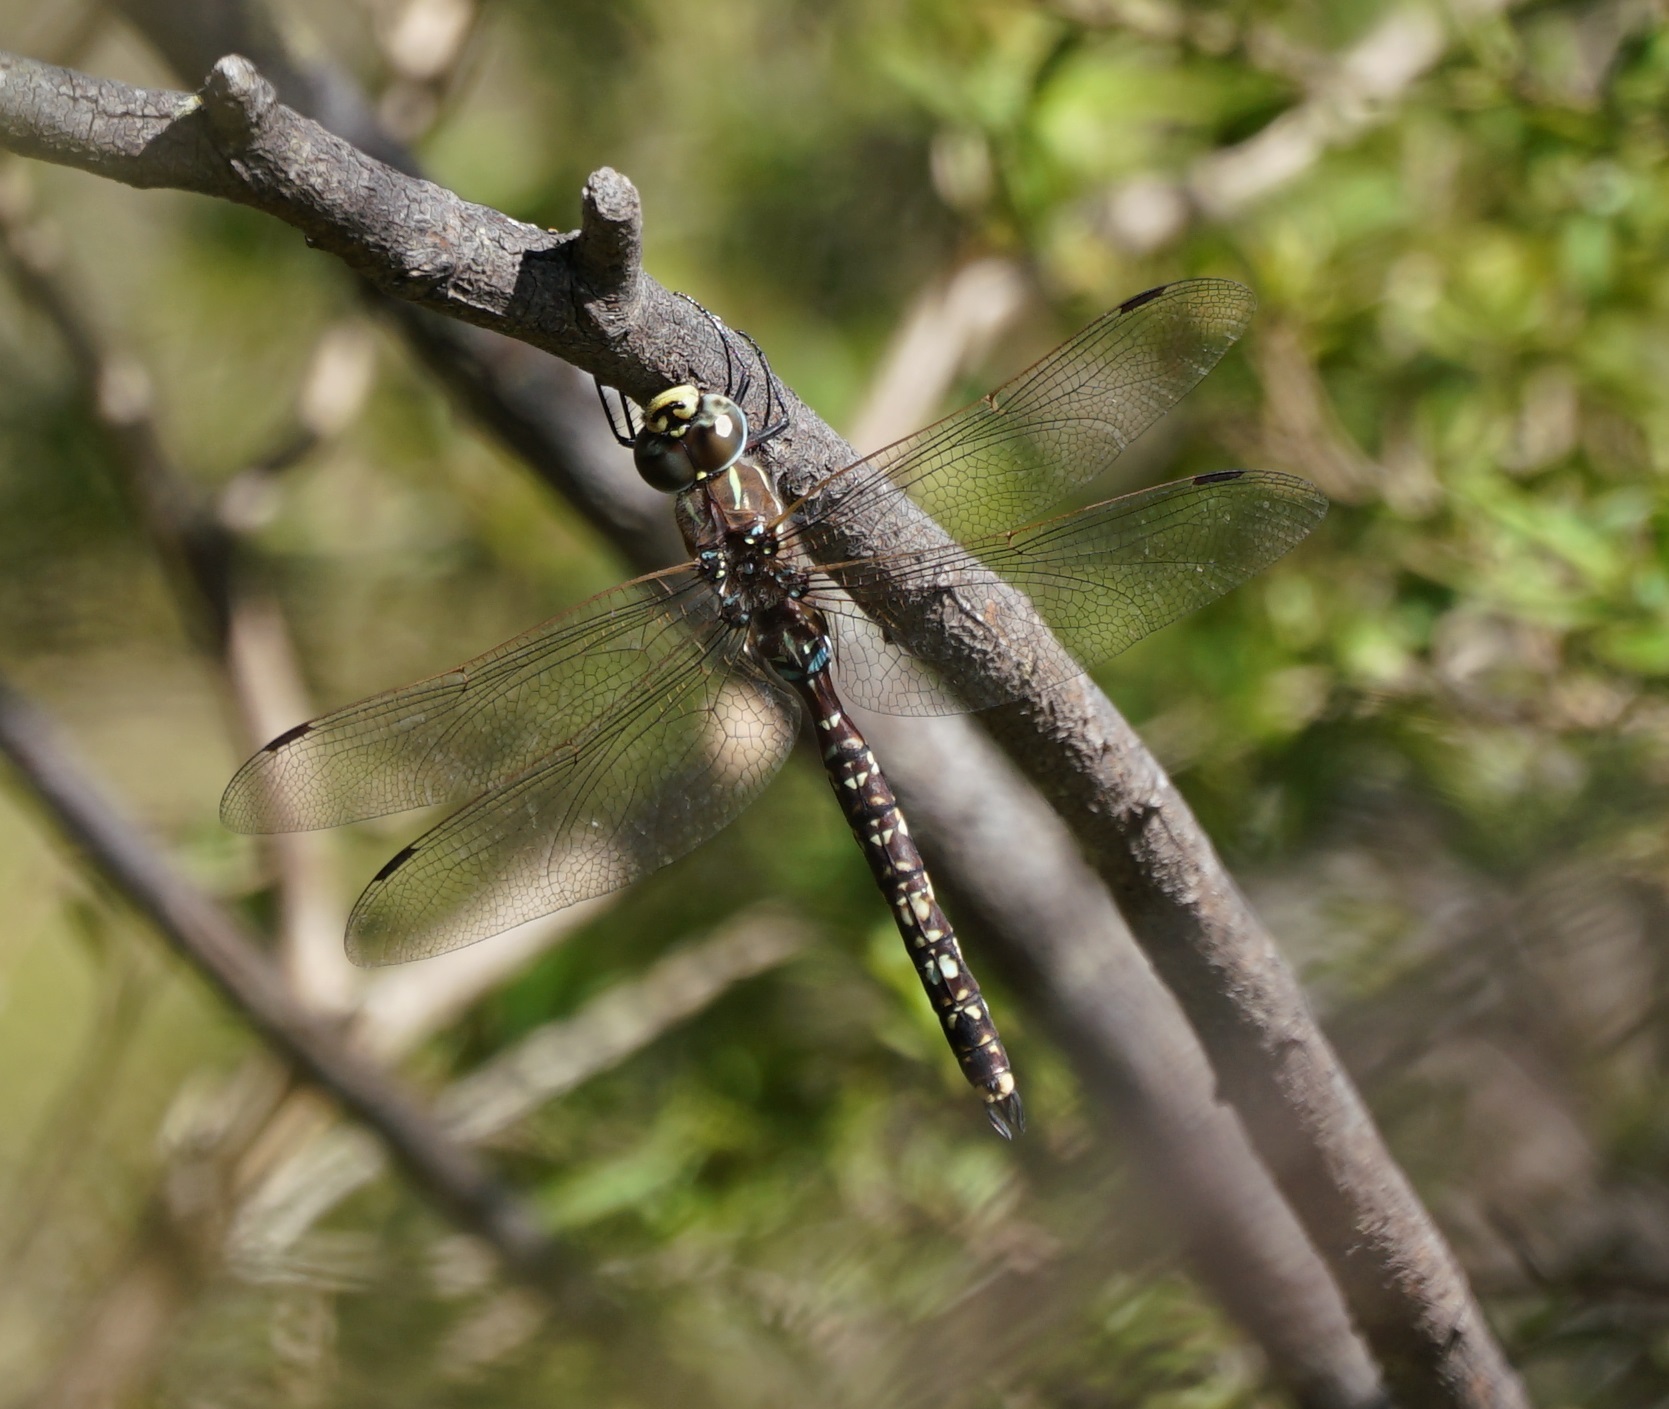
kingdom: Animalia
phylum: Arthropoda
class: Insecta
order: Odonata
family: Aeshnidae
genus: Aeshna
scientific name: Aeshna brevistyla
